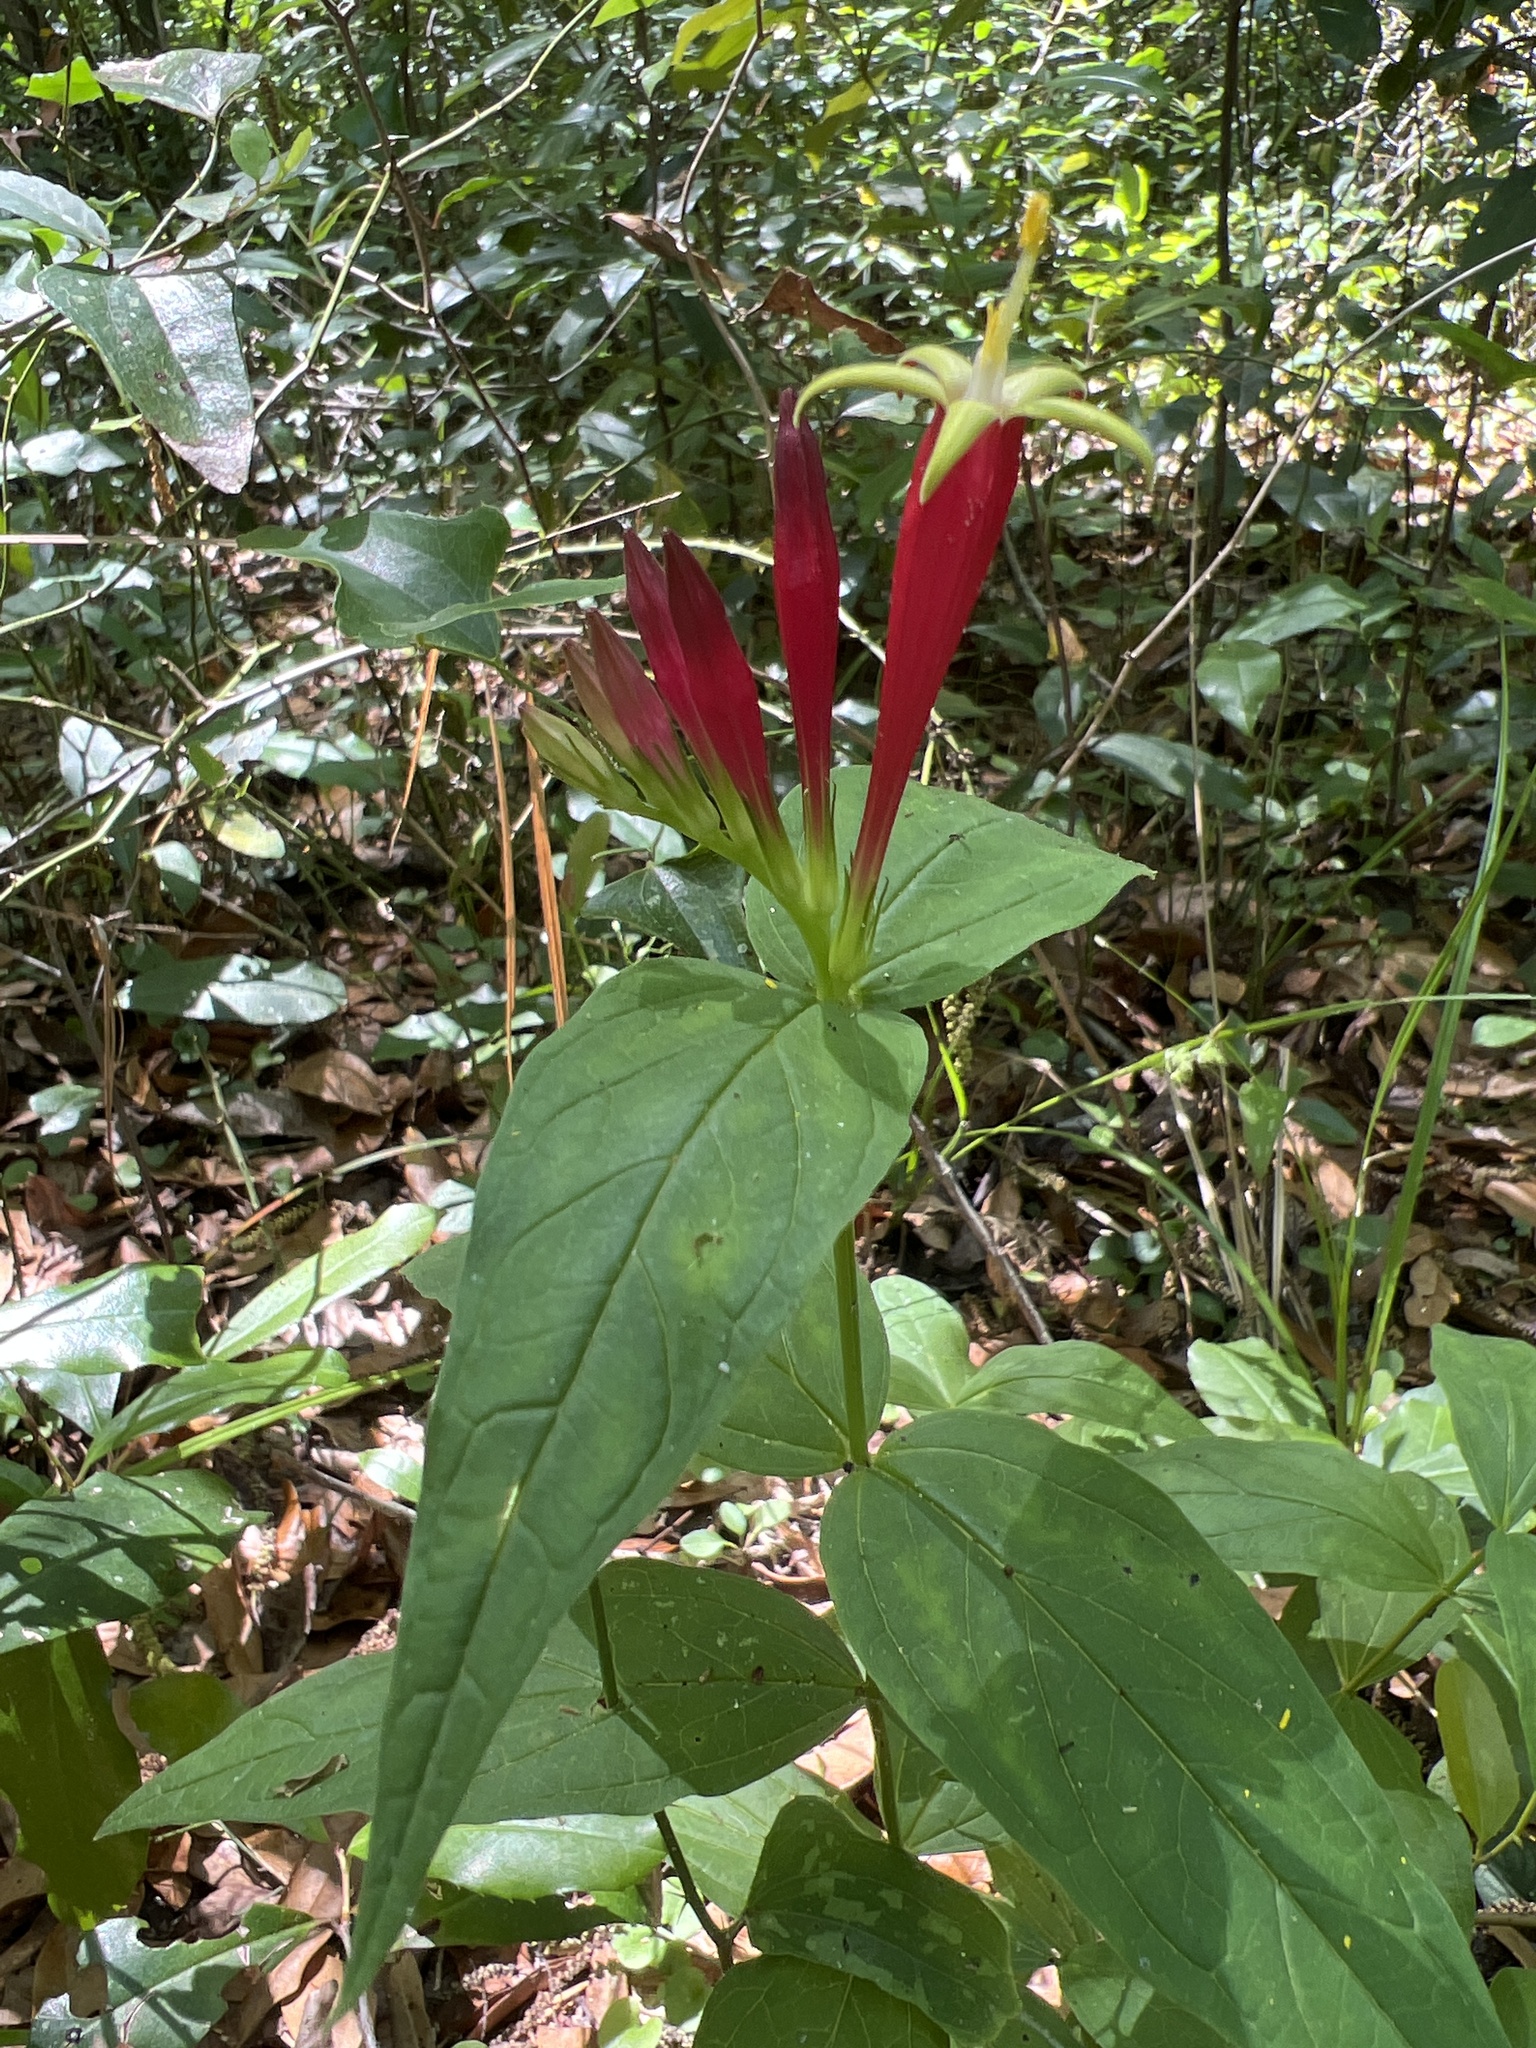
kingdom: Plantae
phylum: Tracheophyta
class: Magnoliopsida
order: Gentianales
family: Loganiaceae
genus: Spigelia
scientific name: Spigelia marilandica
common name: Indian-pink
